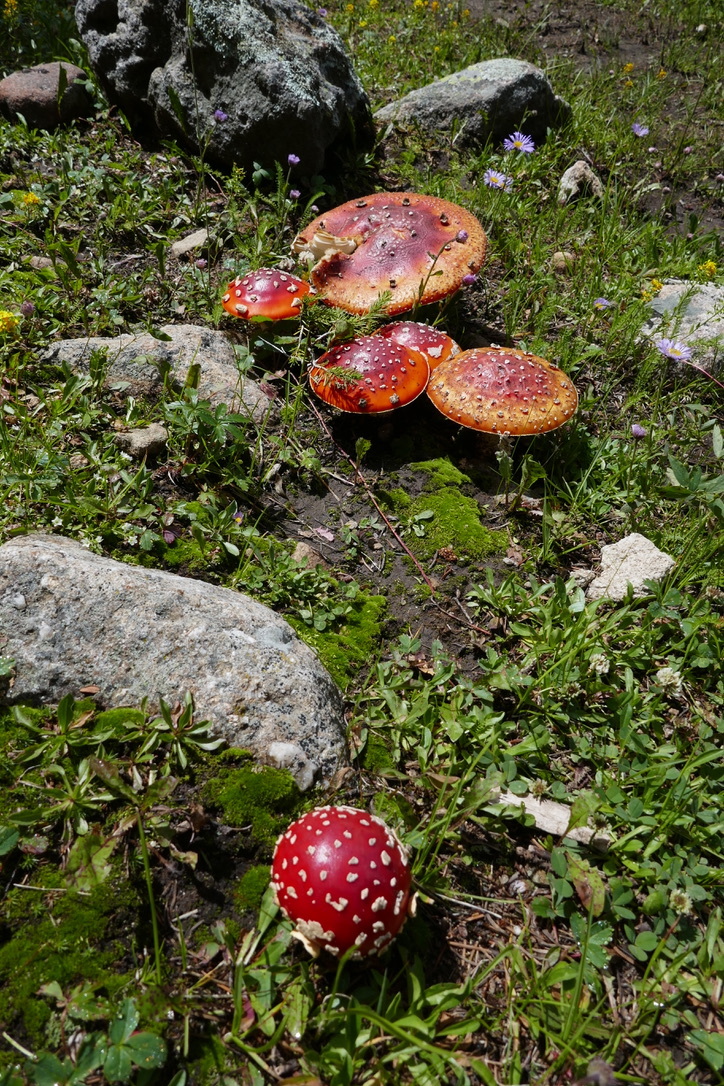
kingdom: Fungi
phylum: Basidiomycota
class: Agaricomycetes
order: Agaricales
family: Amanitaceae
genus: Amanita
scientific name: Amanita muscaria
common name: Fly agaric
